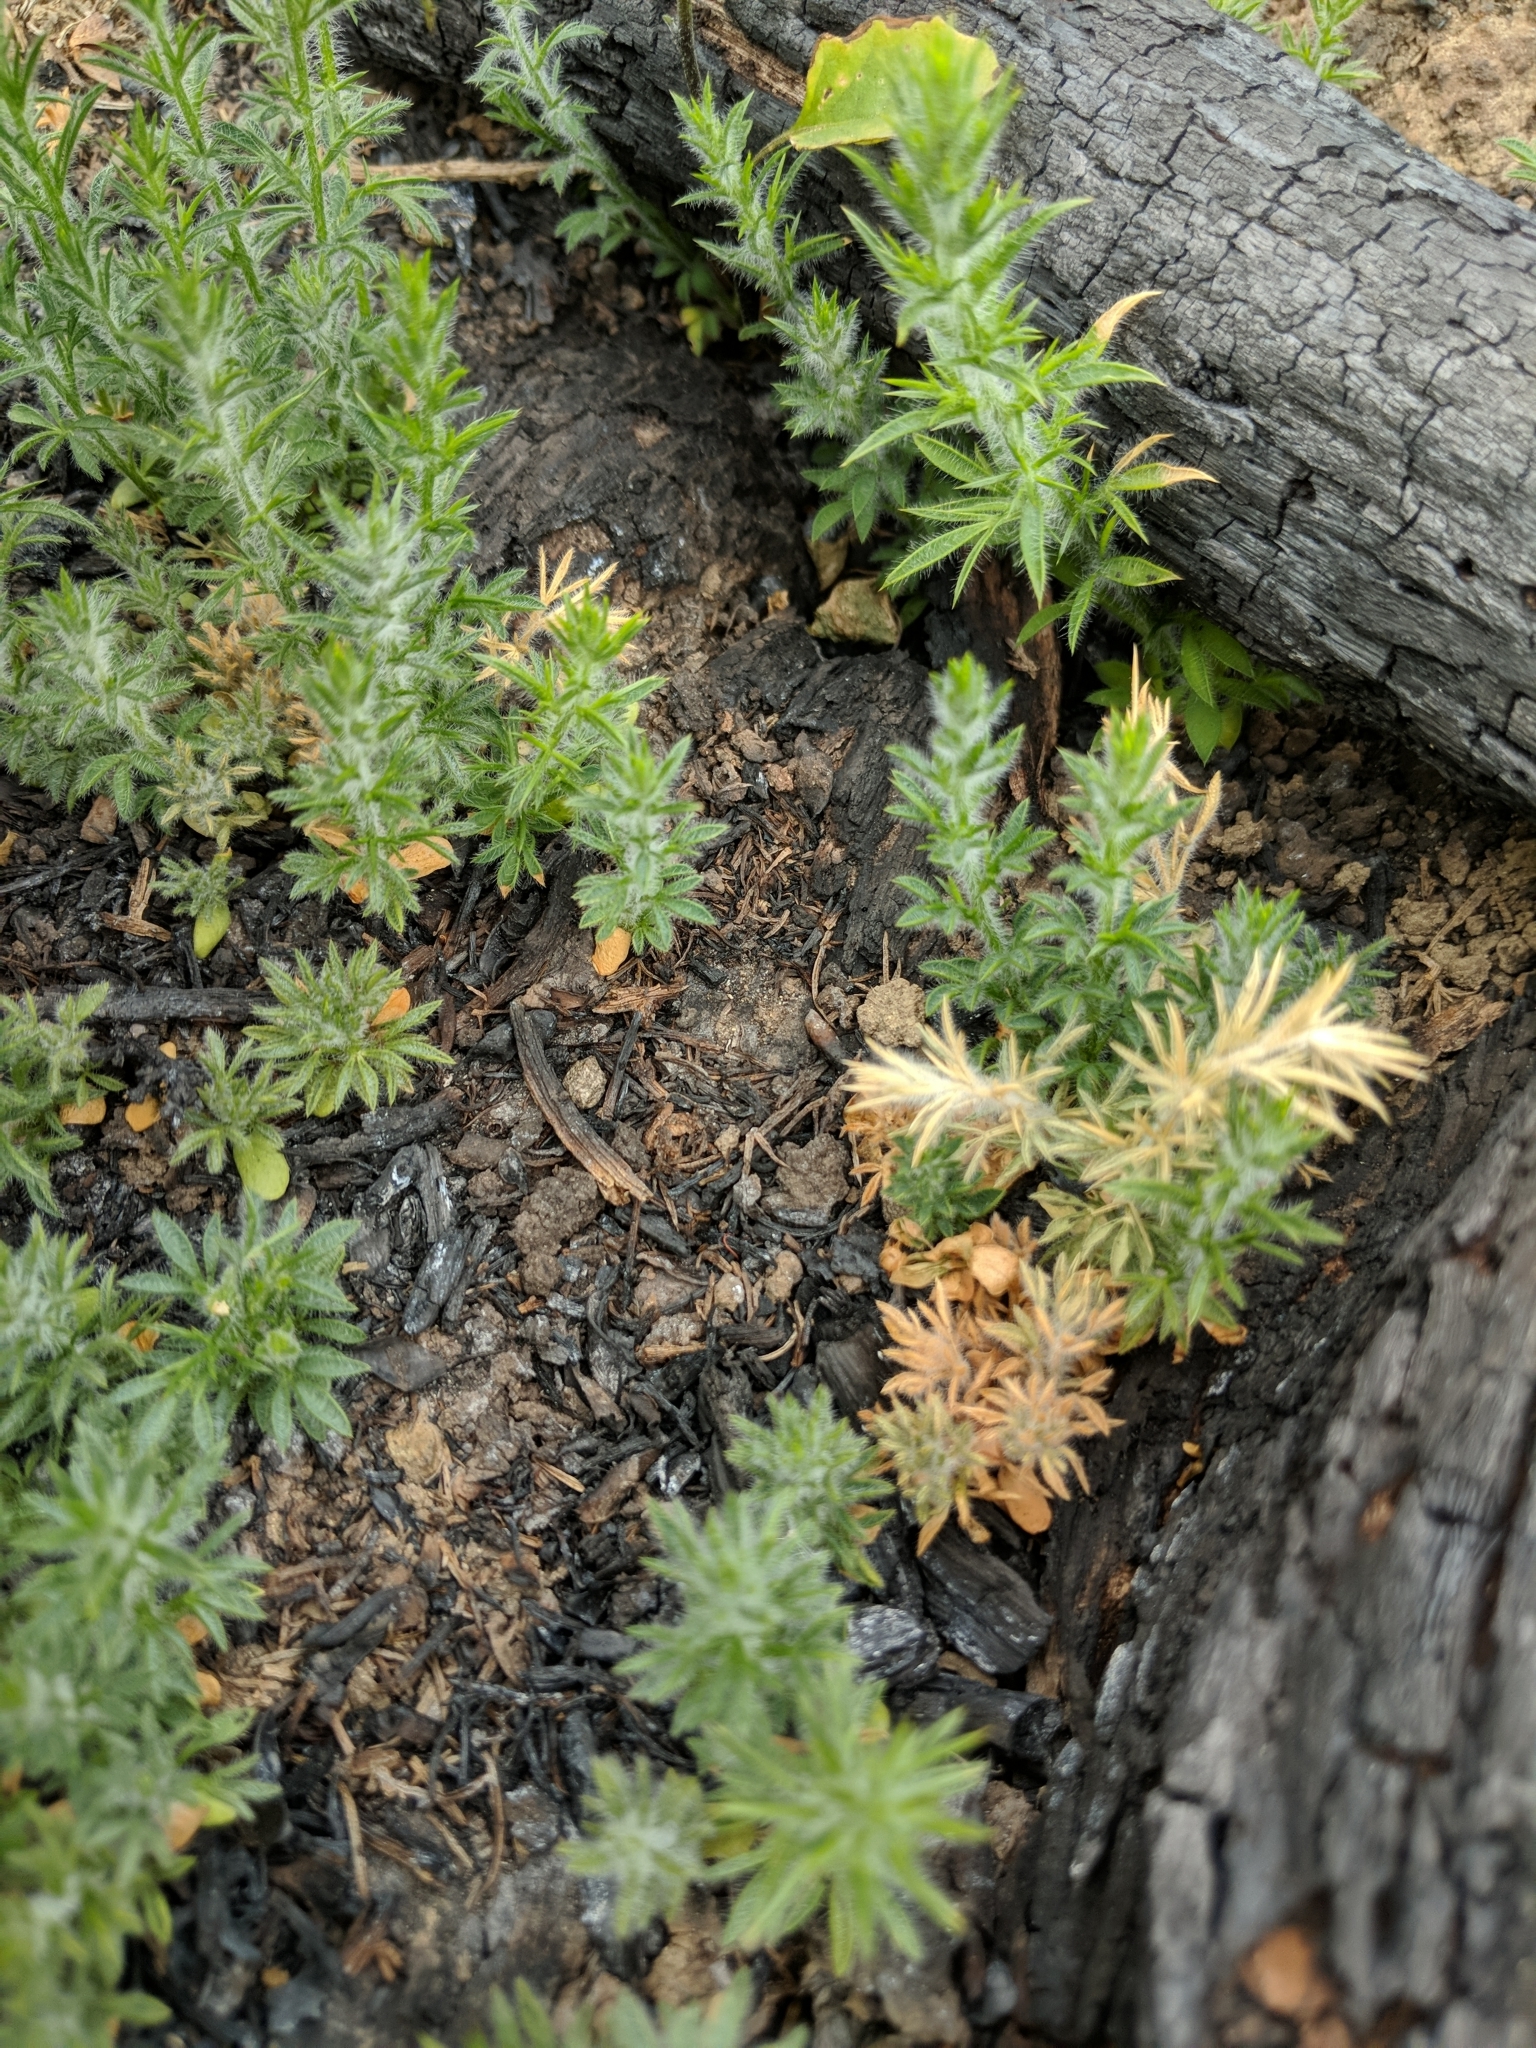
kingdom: Plantae
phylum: Tracheophyta
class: Magnoliopsida
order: Fabales
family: Fabaceae
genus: Ulex
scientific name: Ulex europaeus
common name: Common gorse
